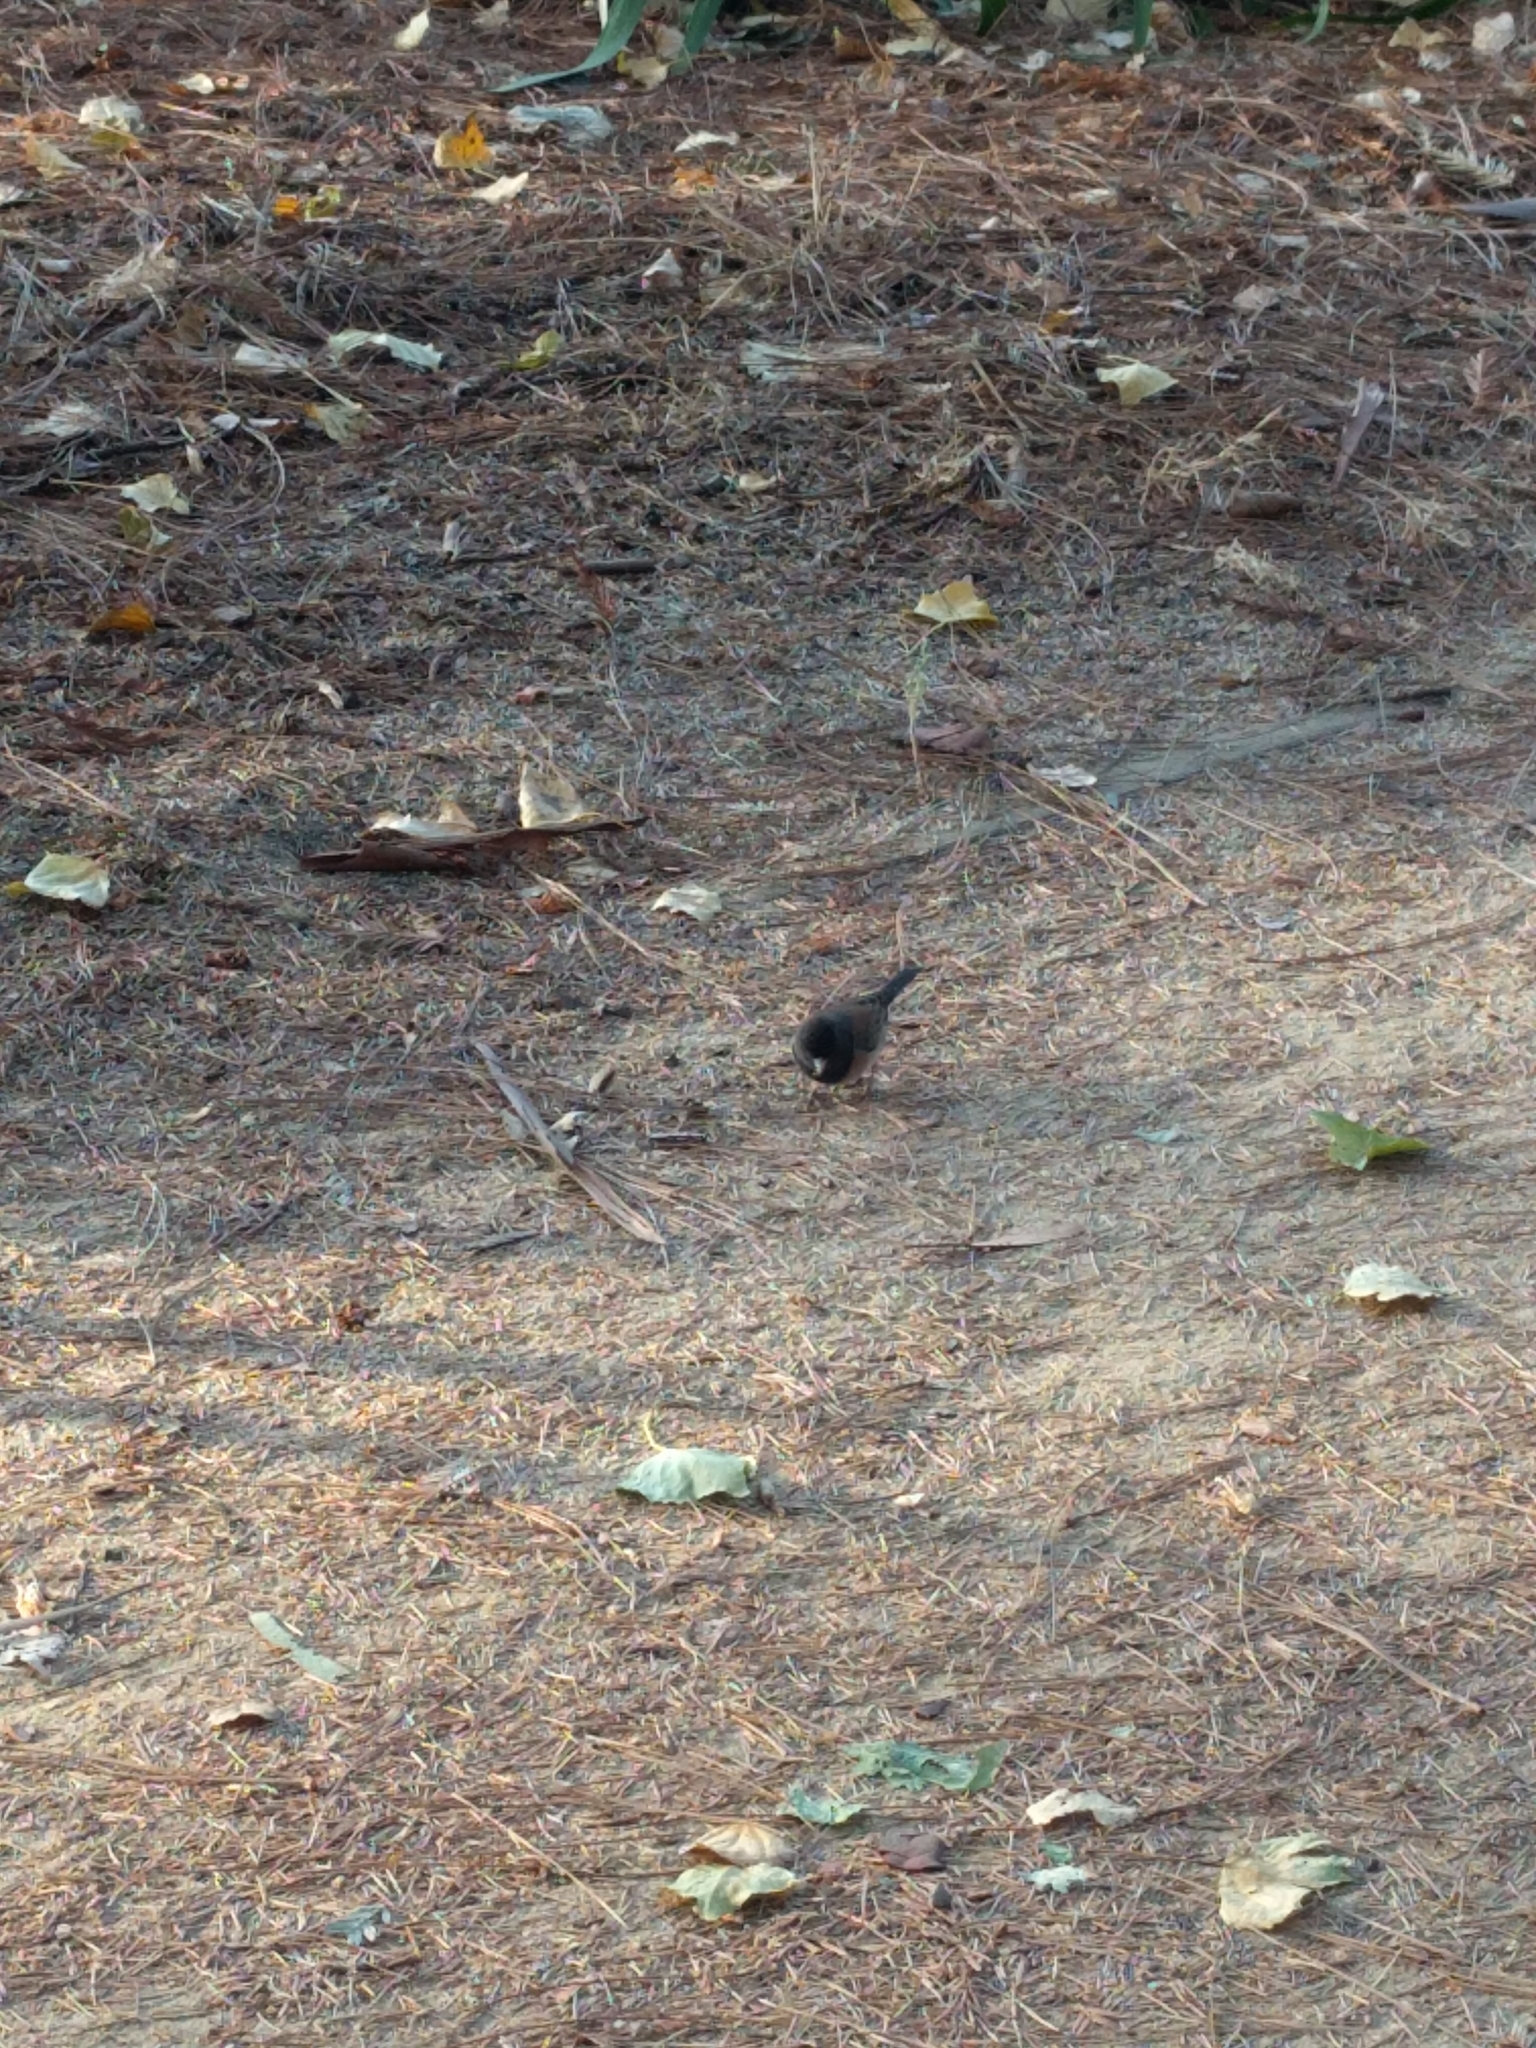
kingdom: Animalia
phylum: Chordata
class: Aves
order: Passeriformes
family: Passerellidae
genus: Junco
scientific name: Junco hyemalis
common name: Dark-eyed junco
